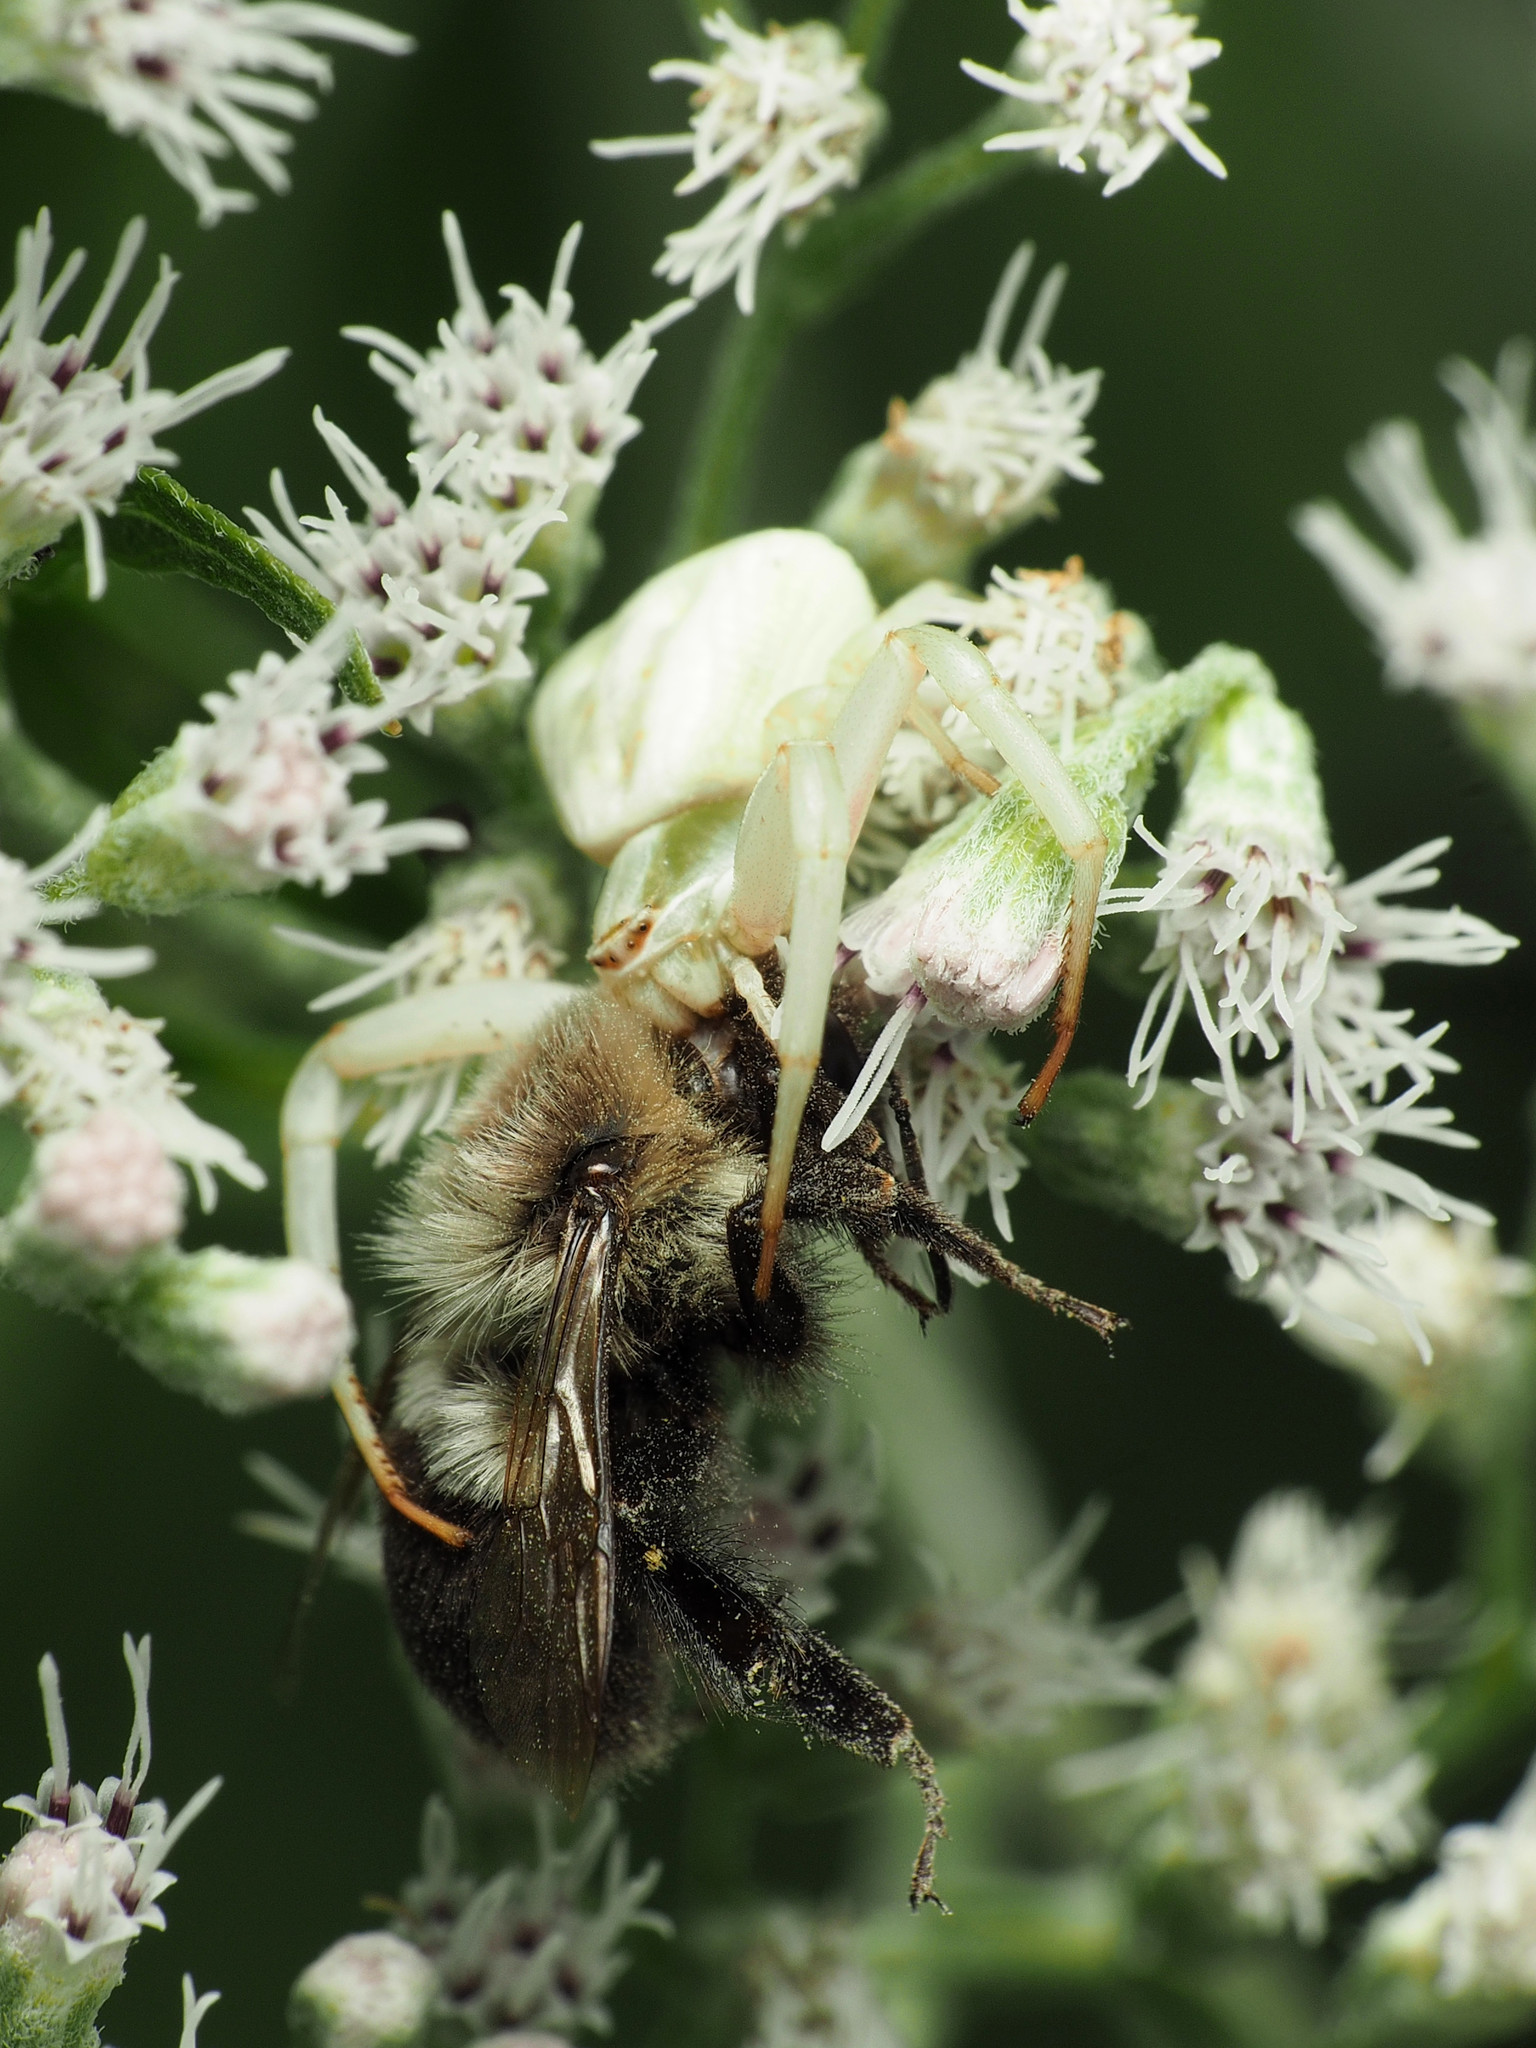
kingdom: Animalia
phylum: Arthropoda
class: Insecta
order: Hymenoptera
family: Apidae
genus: Bombus
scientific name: Bombus impatiens
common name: Common eastern bumble bee
